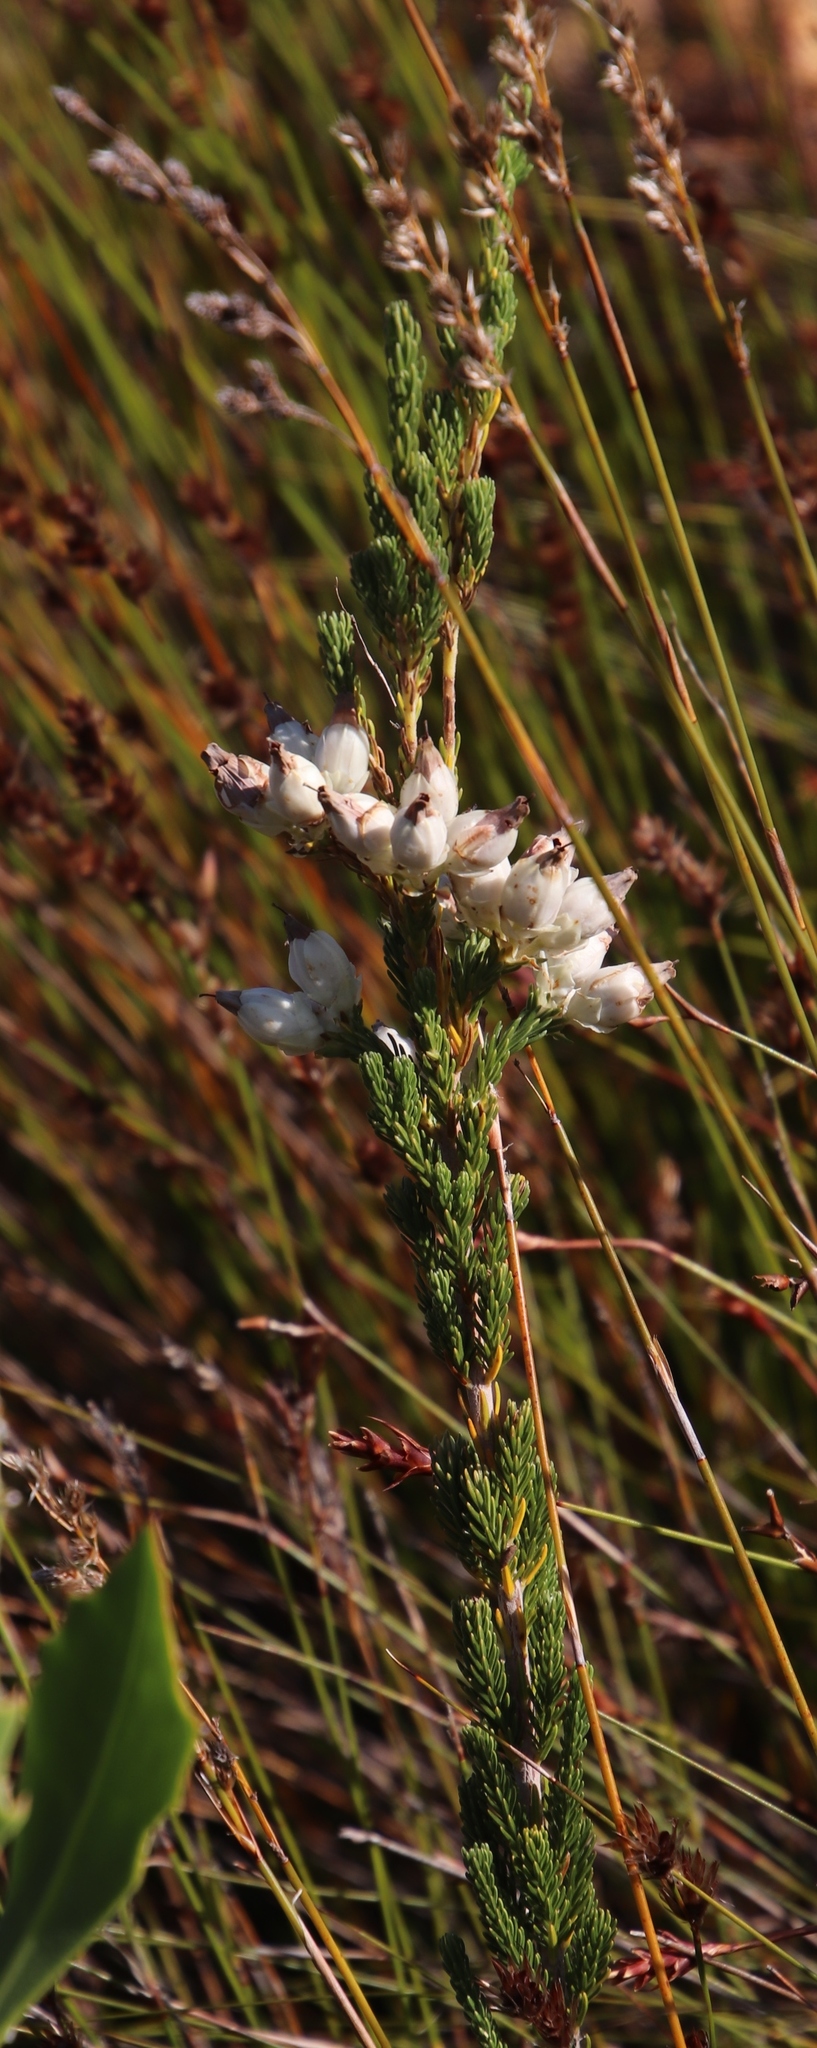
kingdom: Plantae
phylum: Tracheophyta
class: Magnoliopsida
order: Ericales
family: Ericaceae
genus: Erica
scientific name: Erica monsoniana
